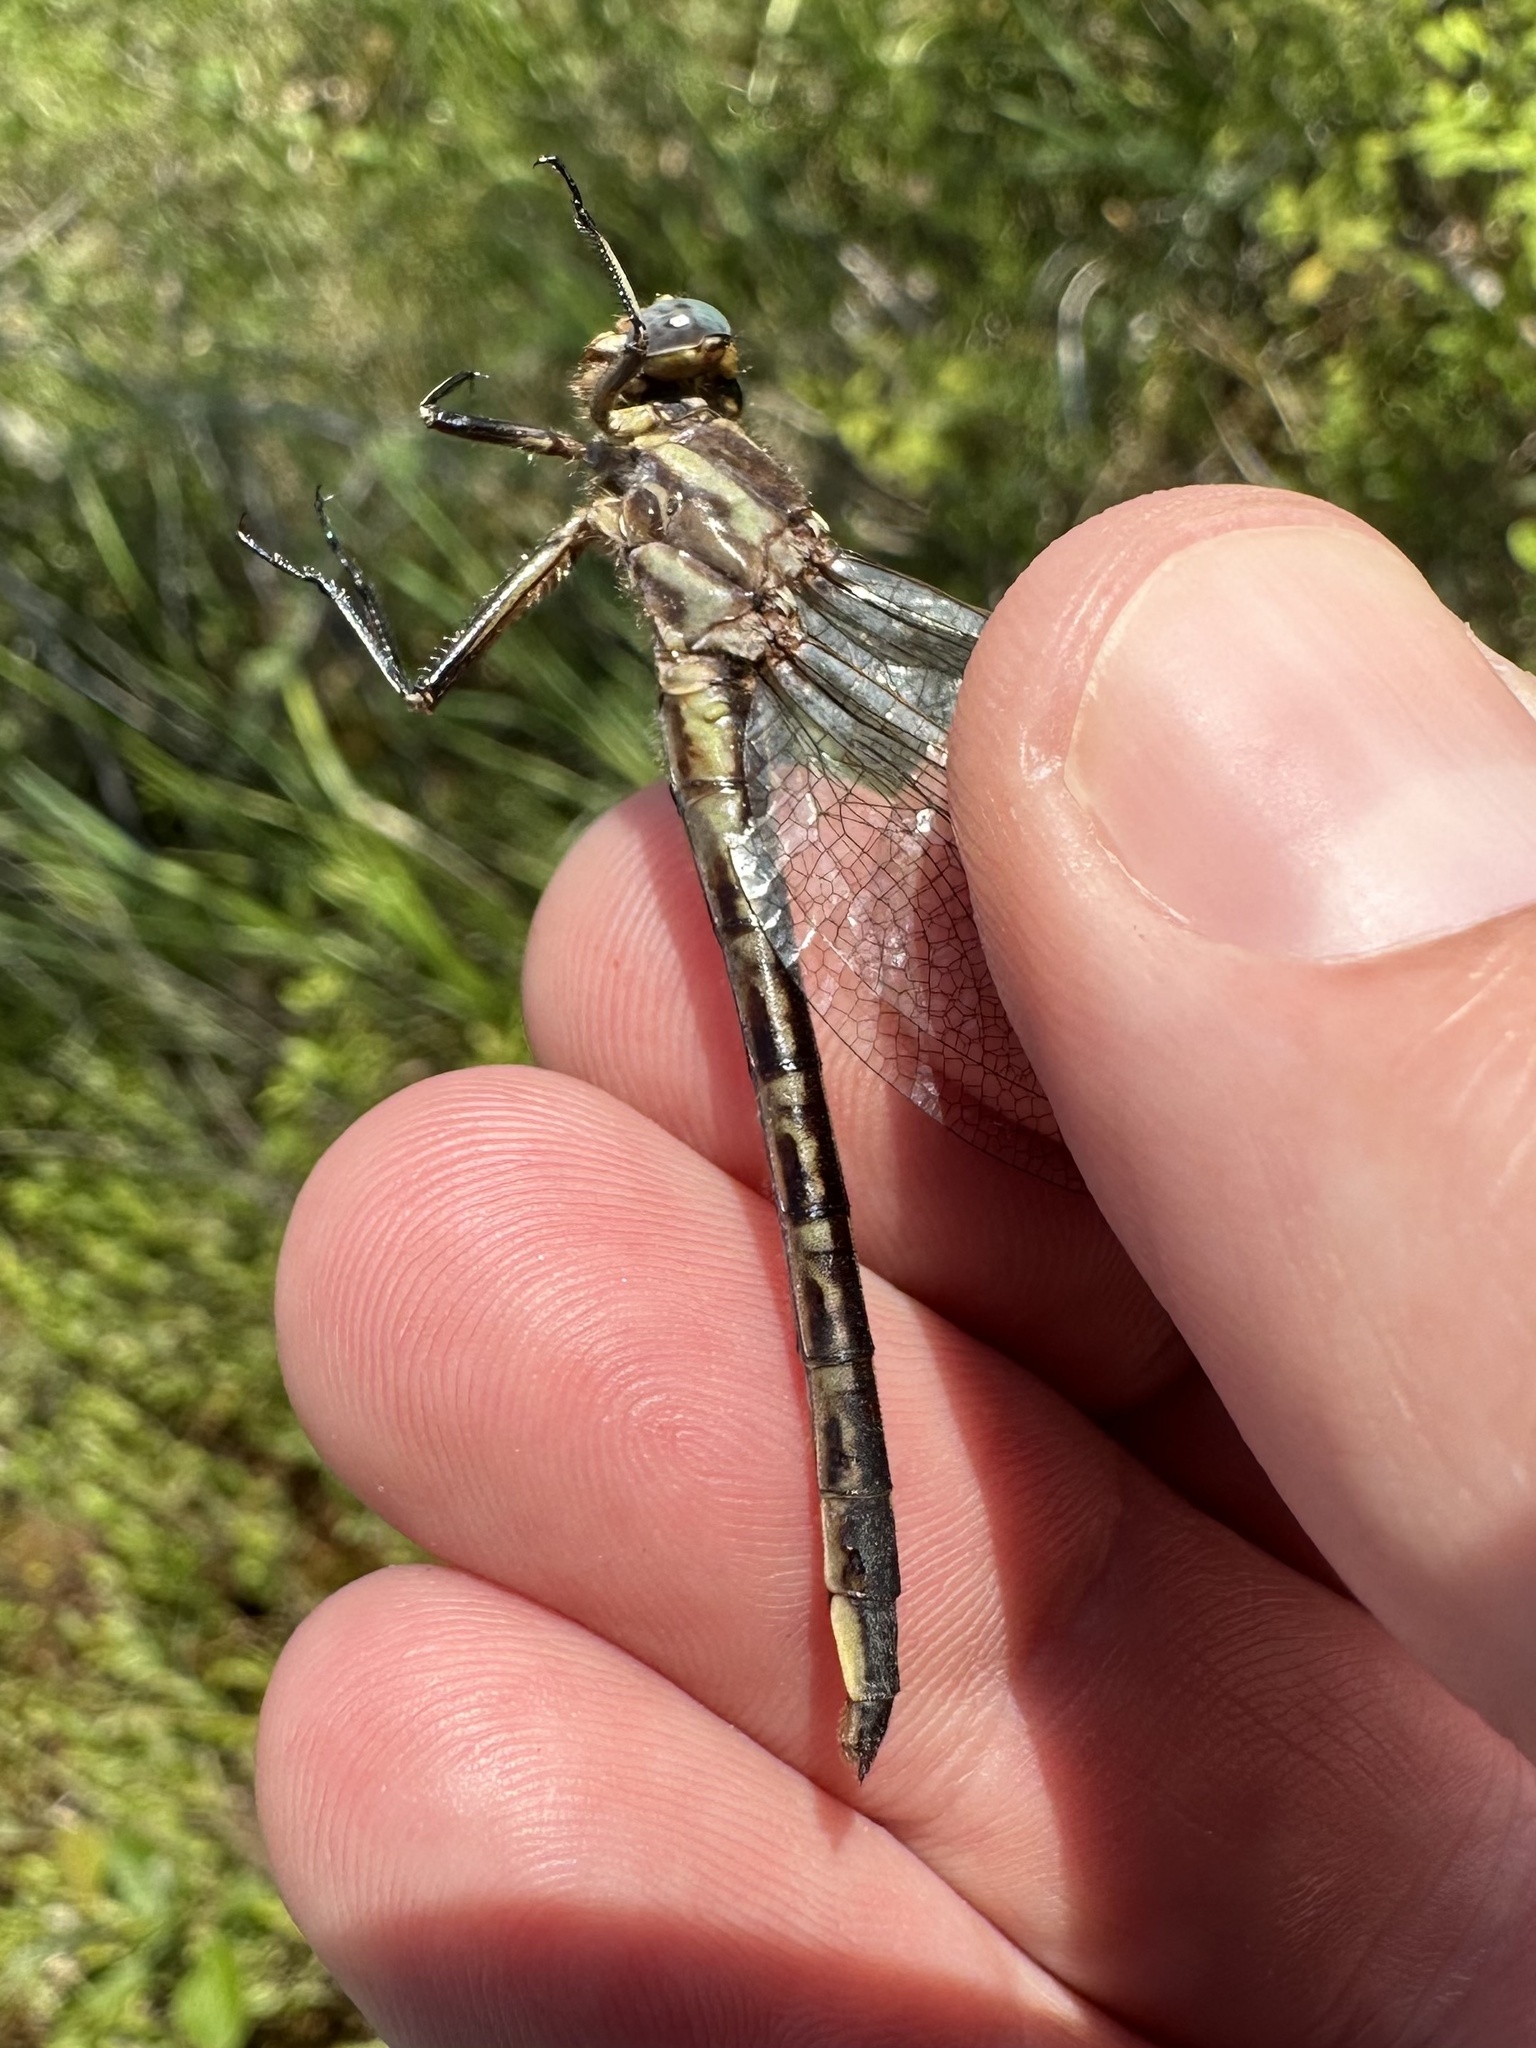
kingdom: Animalia
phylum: Arthropoda
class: Insecta
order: Odonata
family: Gomphidae
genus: Phanogomphus
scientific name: Phanogomphus spicatus
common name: Dusky clubtail
